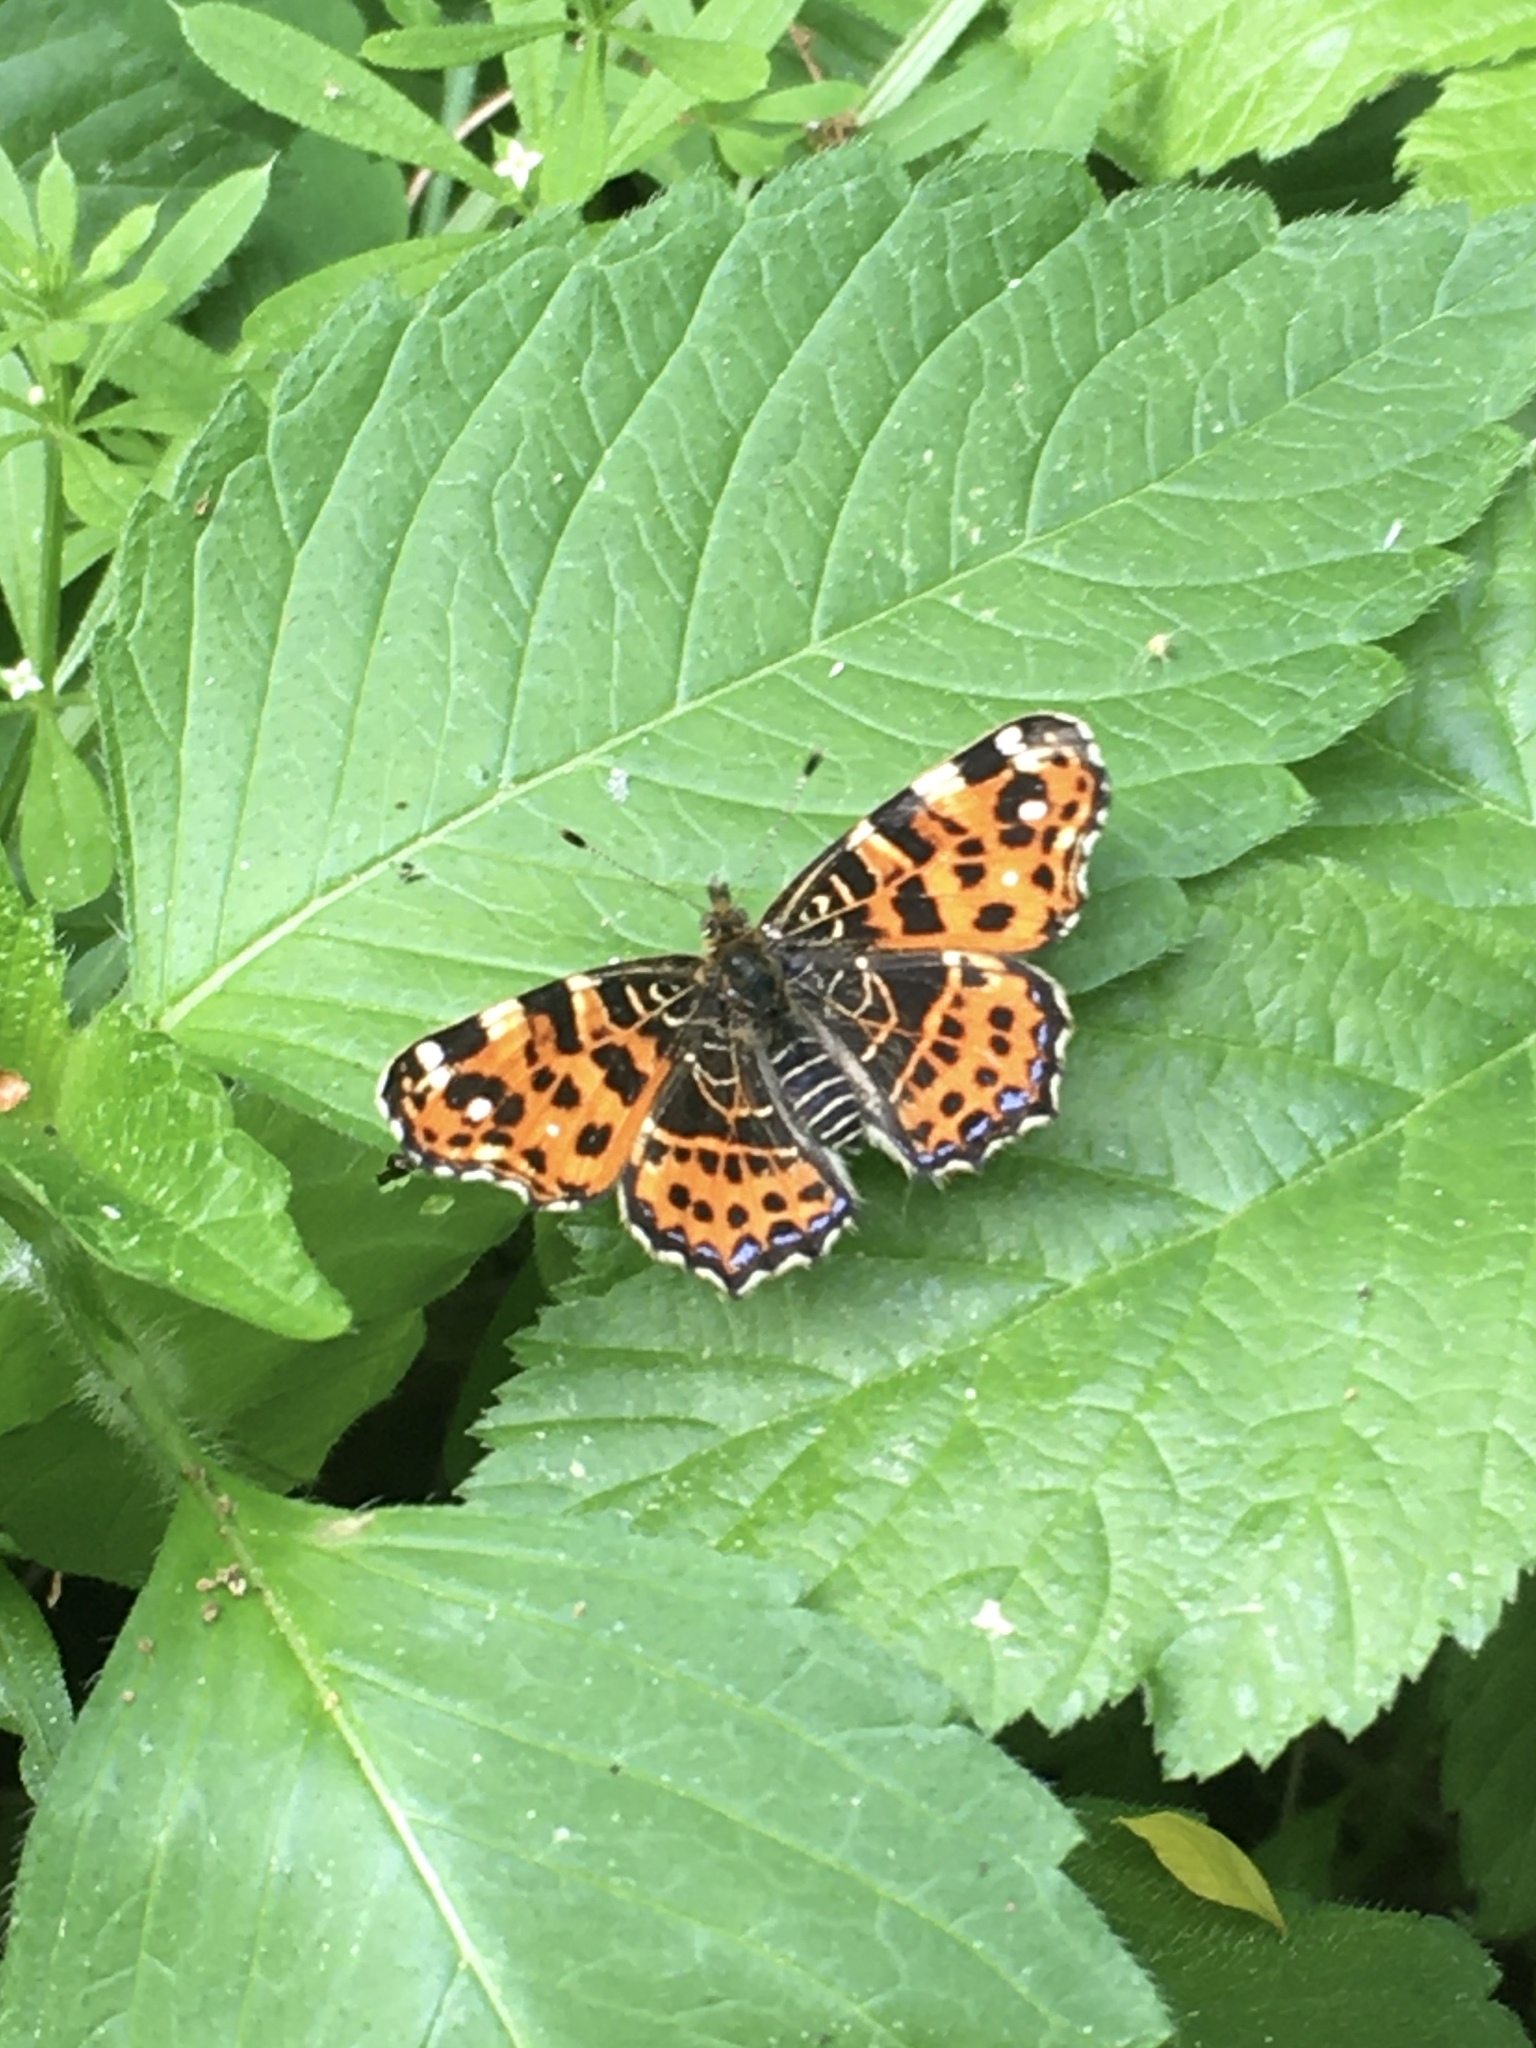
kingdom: Animalia
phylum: Arthropoda
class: Insecta
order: Lepidoptera
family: Nymphalidae
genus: Araschnia
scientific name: Araschnia levana
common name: Map butterfly
